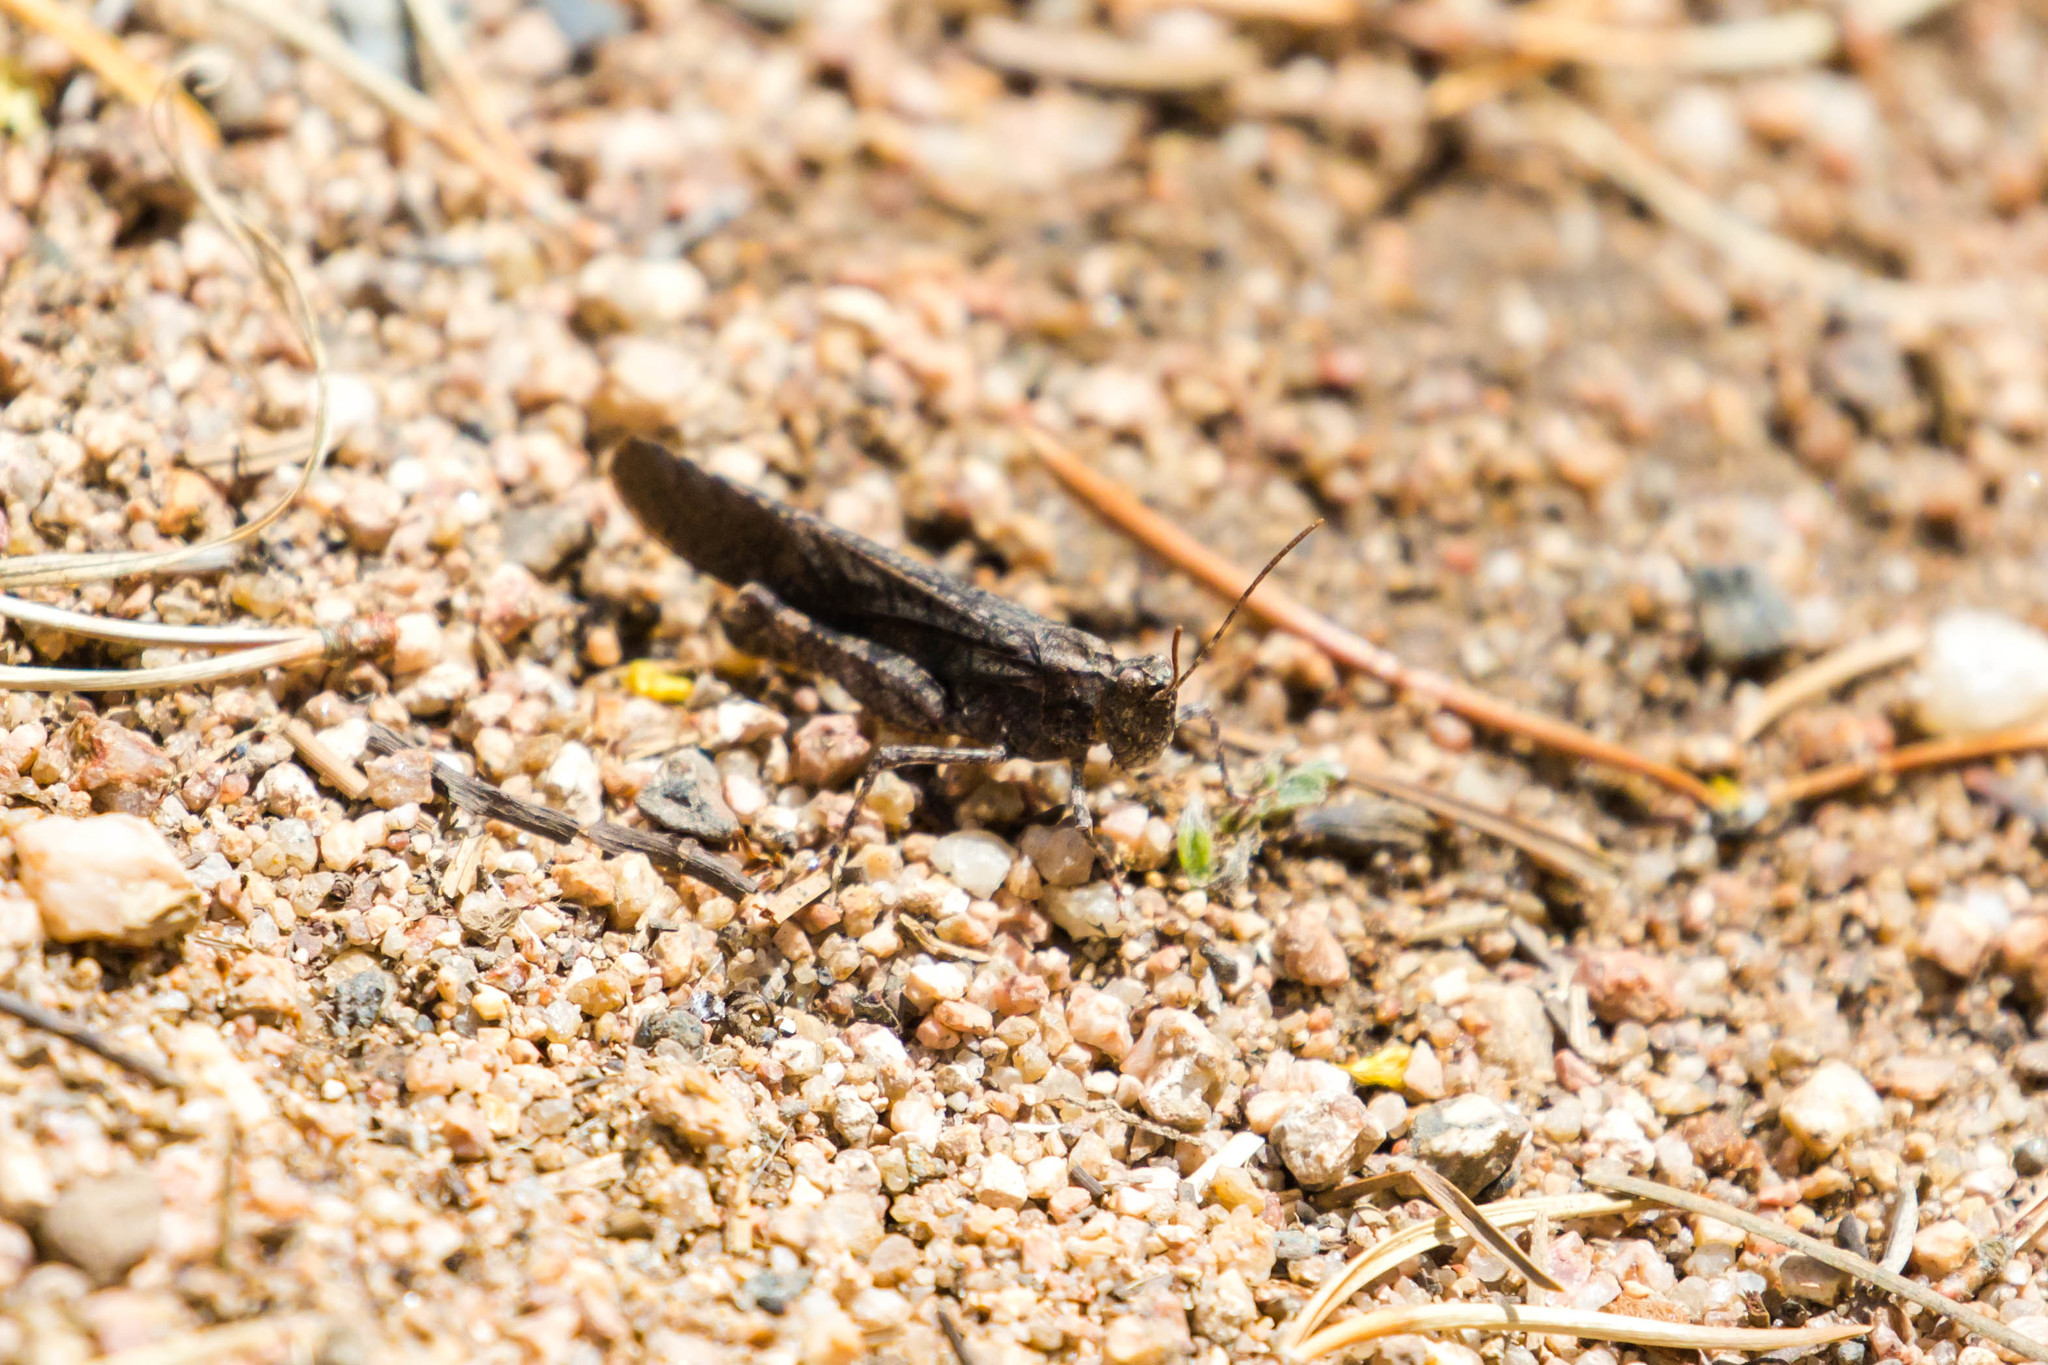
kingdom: Animalia
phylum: Arthropoda
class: Insecta
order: Orthoptera
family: Acrididae
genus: Trimerotropis
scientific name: Trimerotropis verruculata
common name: Crackling forest grasshopper
